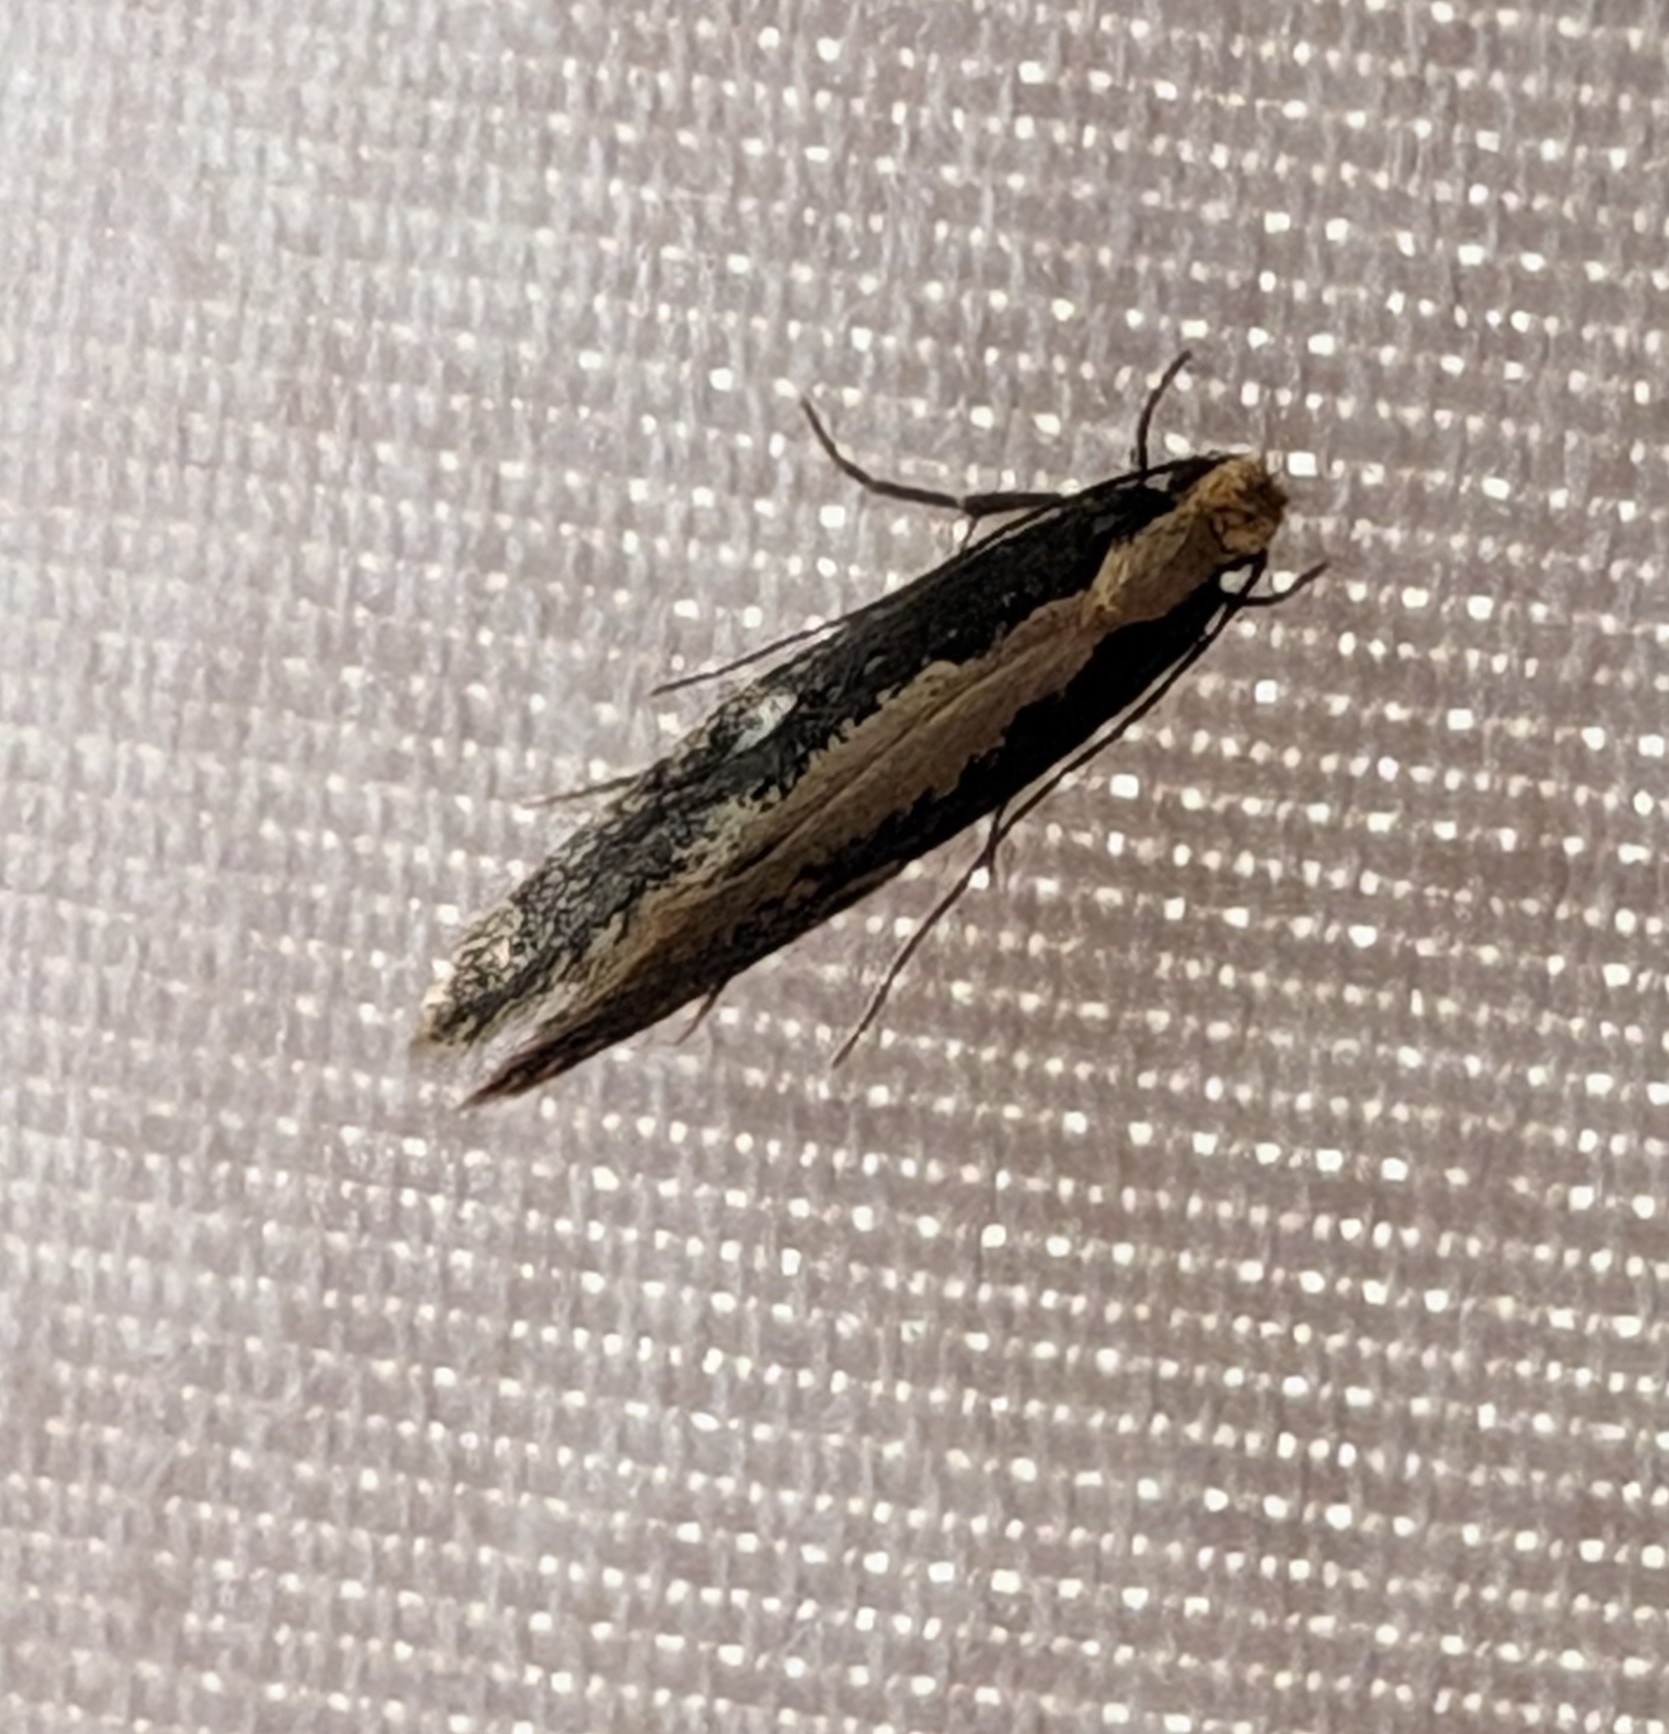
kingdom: Animalia
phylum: Arthropoda
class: Insecta
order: Lepidoptera
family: Tineidae
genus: Monopis
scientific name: Monopis crocicapitella
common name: Moth
